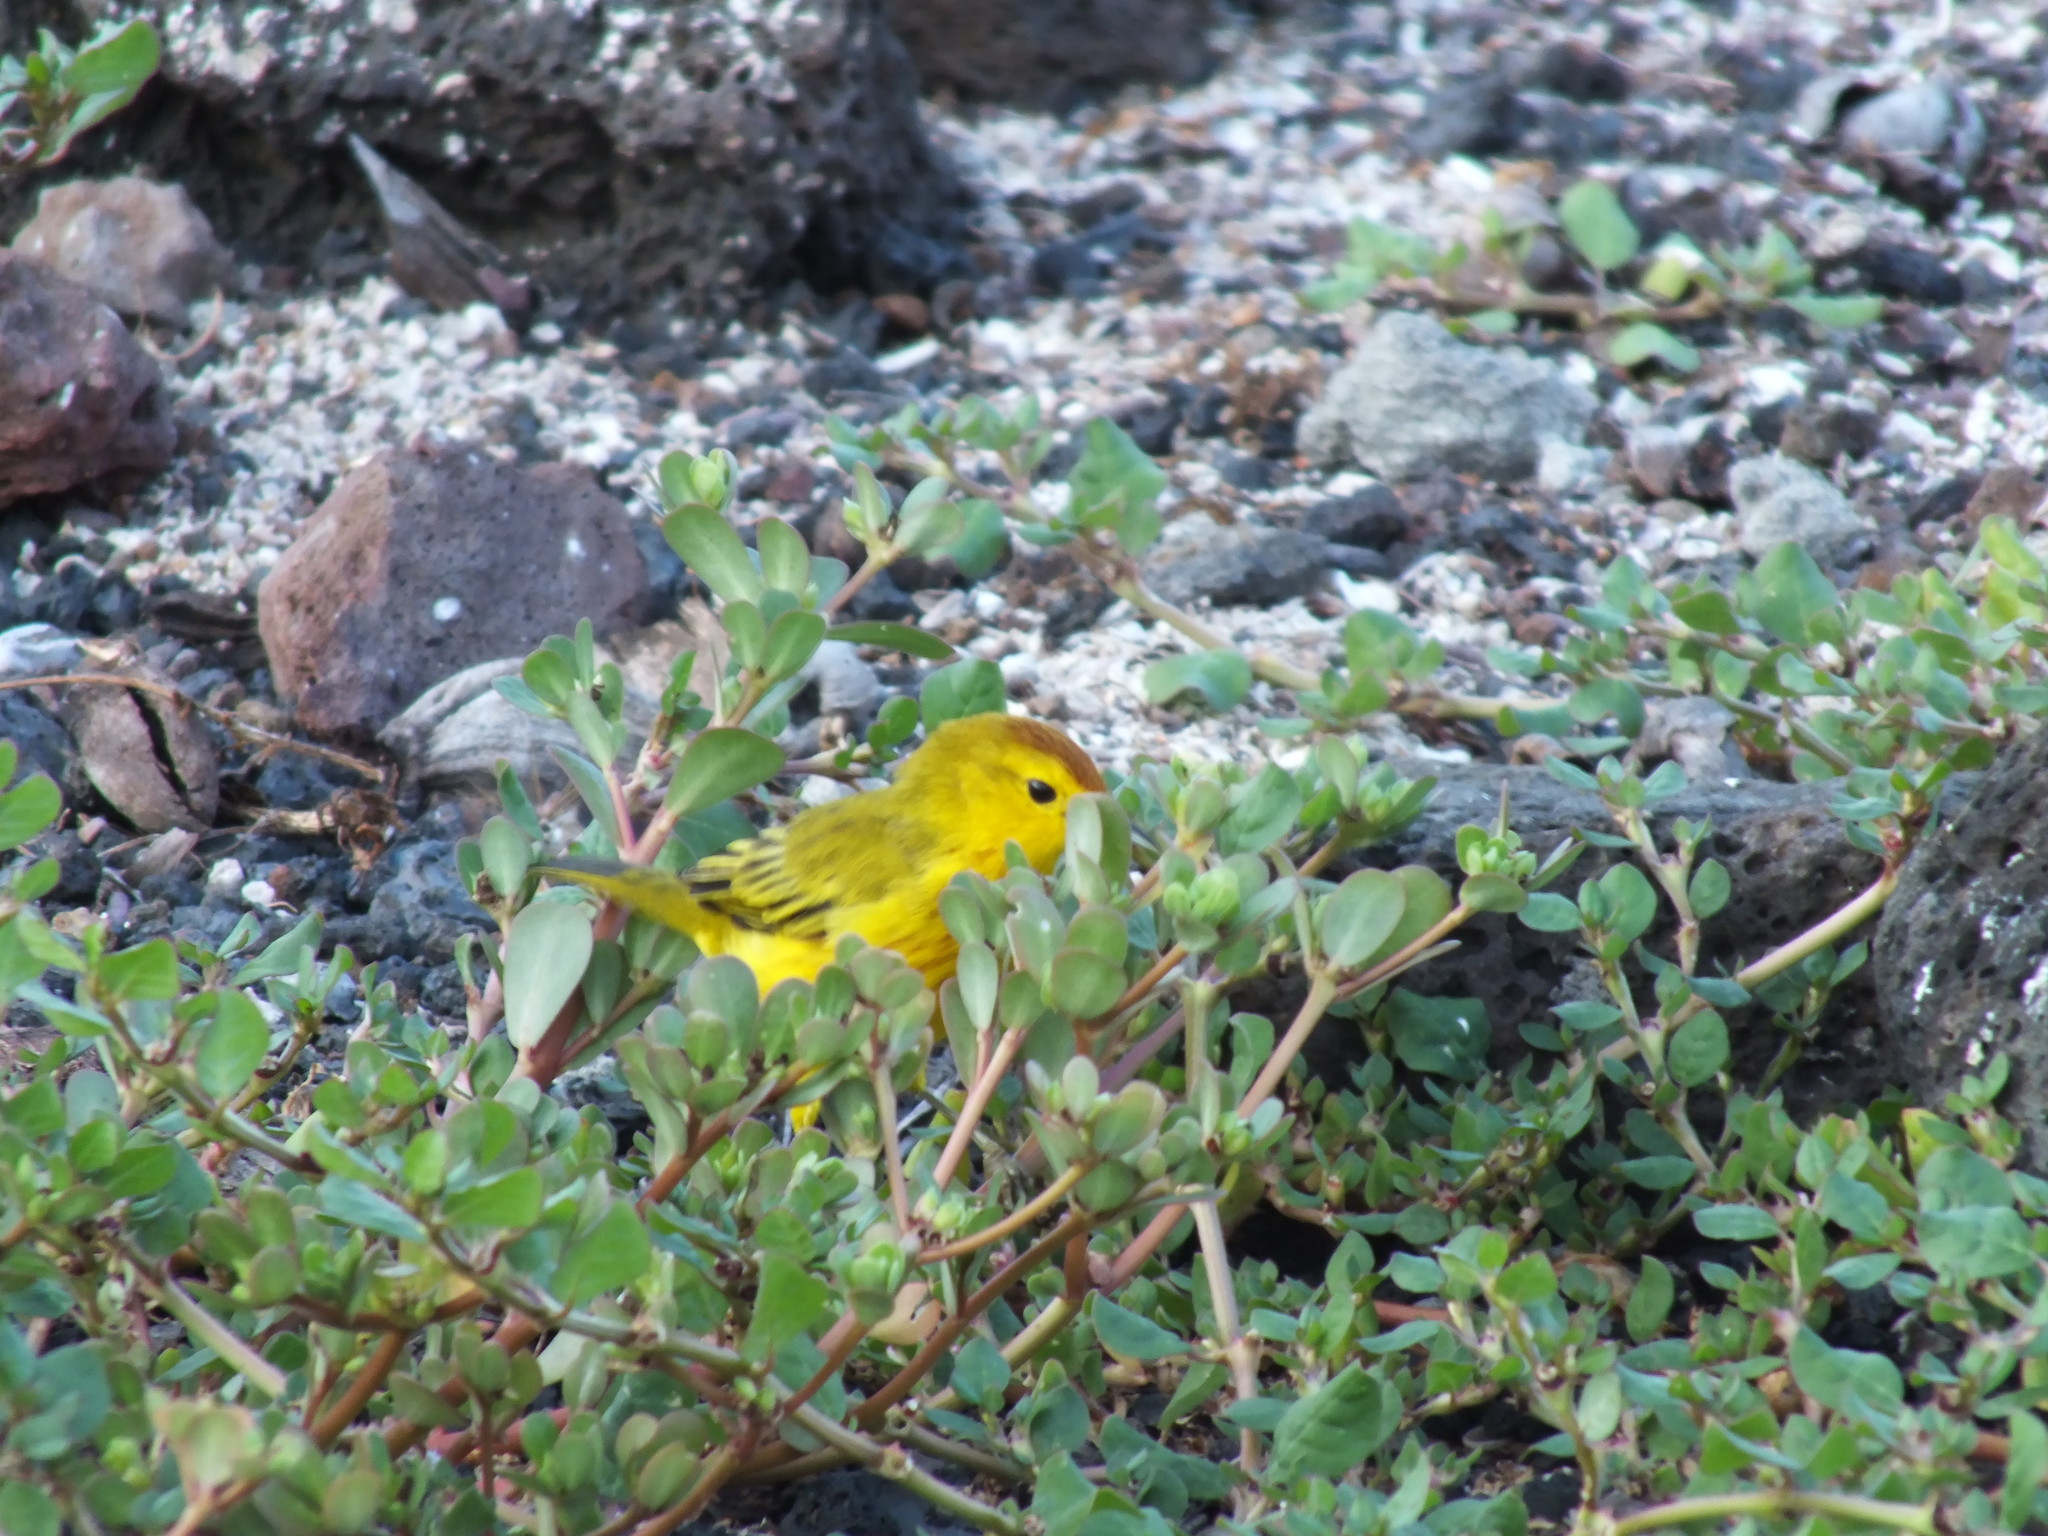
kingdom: Animalia
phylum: Chordata
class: Aves
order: Passeriformes
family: Parulidae
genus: Setophaga
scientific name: Setophaga petechia
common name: Yellow warbler
